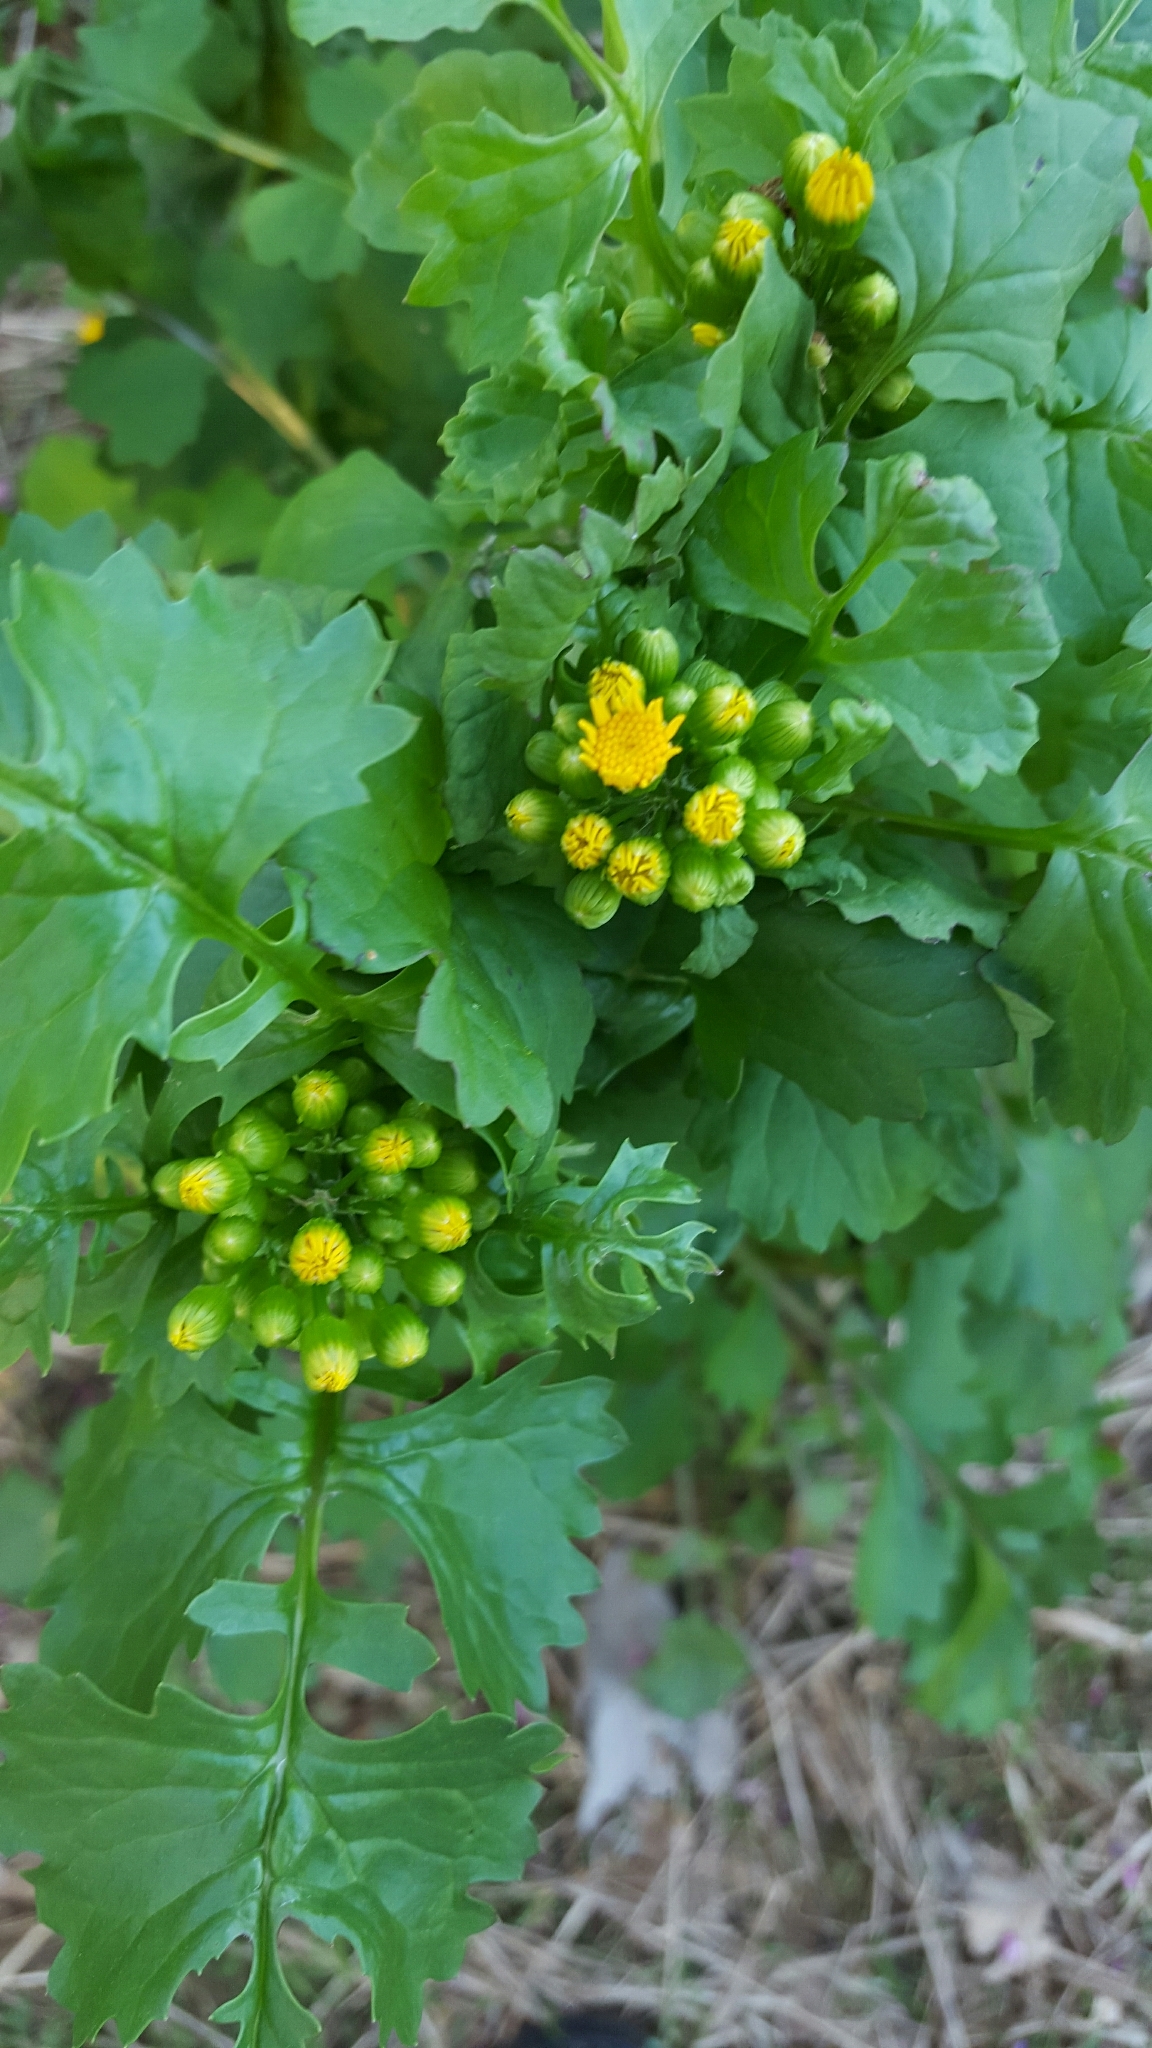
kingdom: Plantae
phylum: Tracheophyta
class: Magnoliopsida
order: Asterales
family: Asteraceae
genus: Packera
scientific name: Packera glabella
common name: Butterweed
